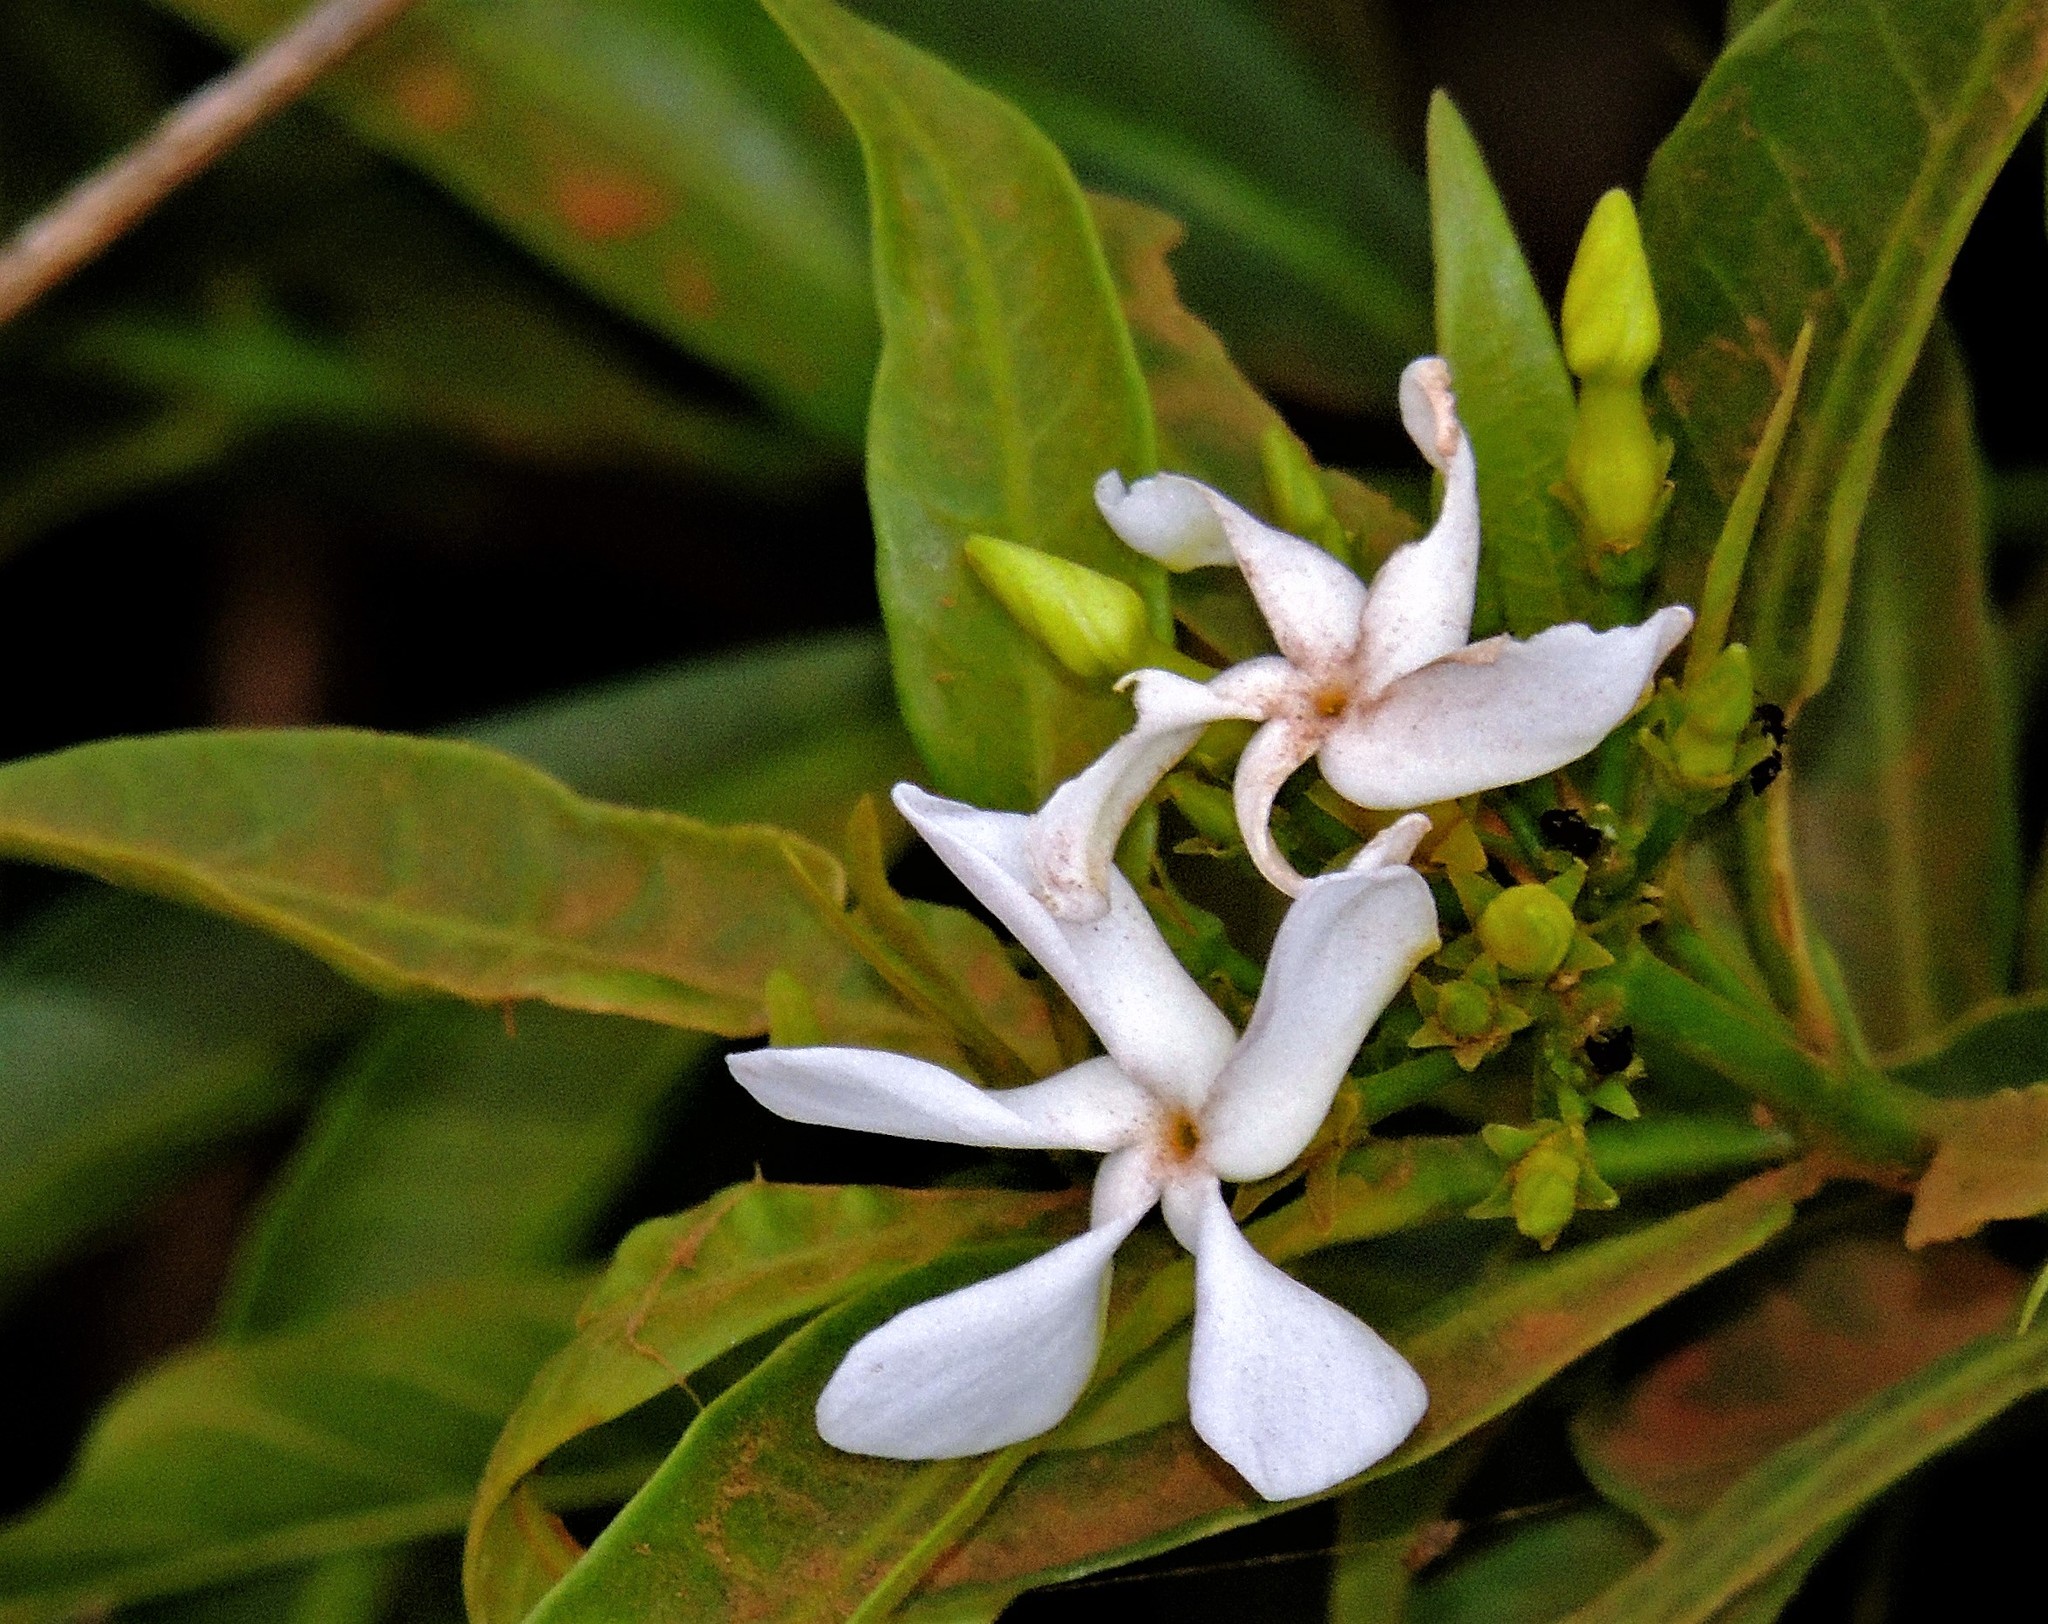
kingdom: Plantae
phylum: Tracheophyta
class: Magnoliopsida
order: Gentianales
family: Apocynaceae
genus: Tabernaemontana
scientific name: Tabernaemontana catharinensis
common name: Pinwheel-flower
